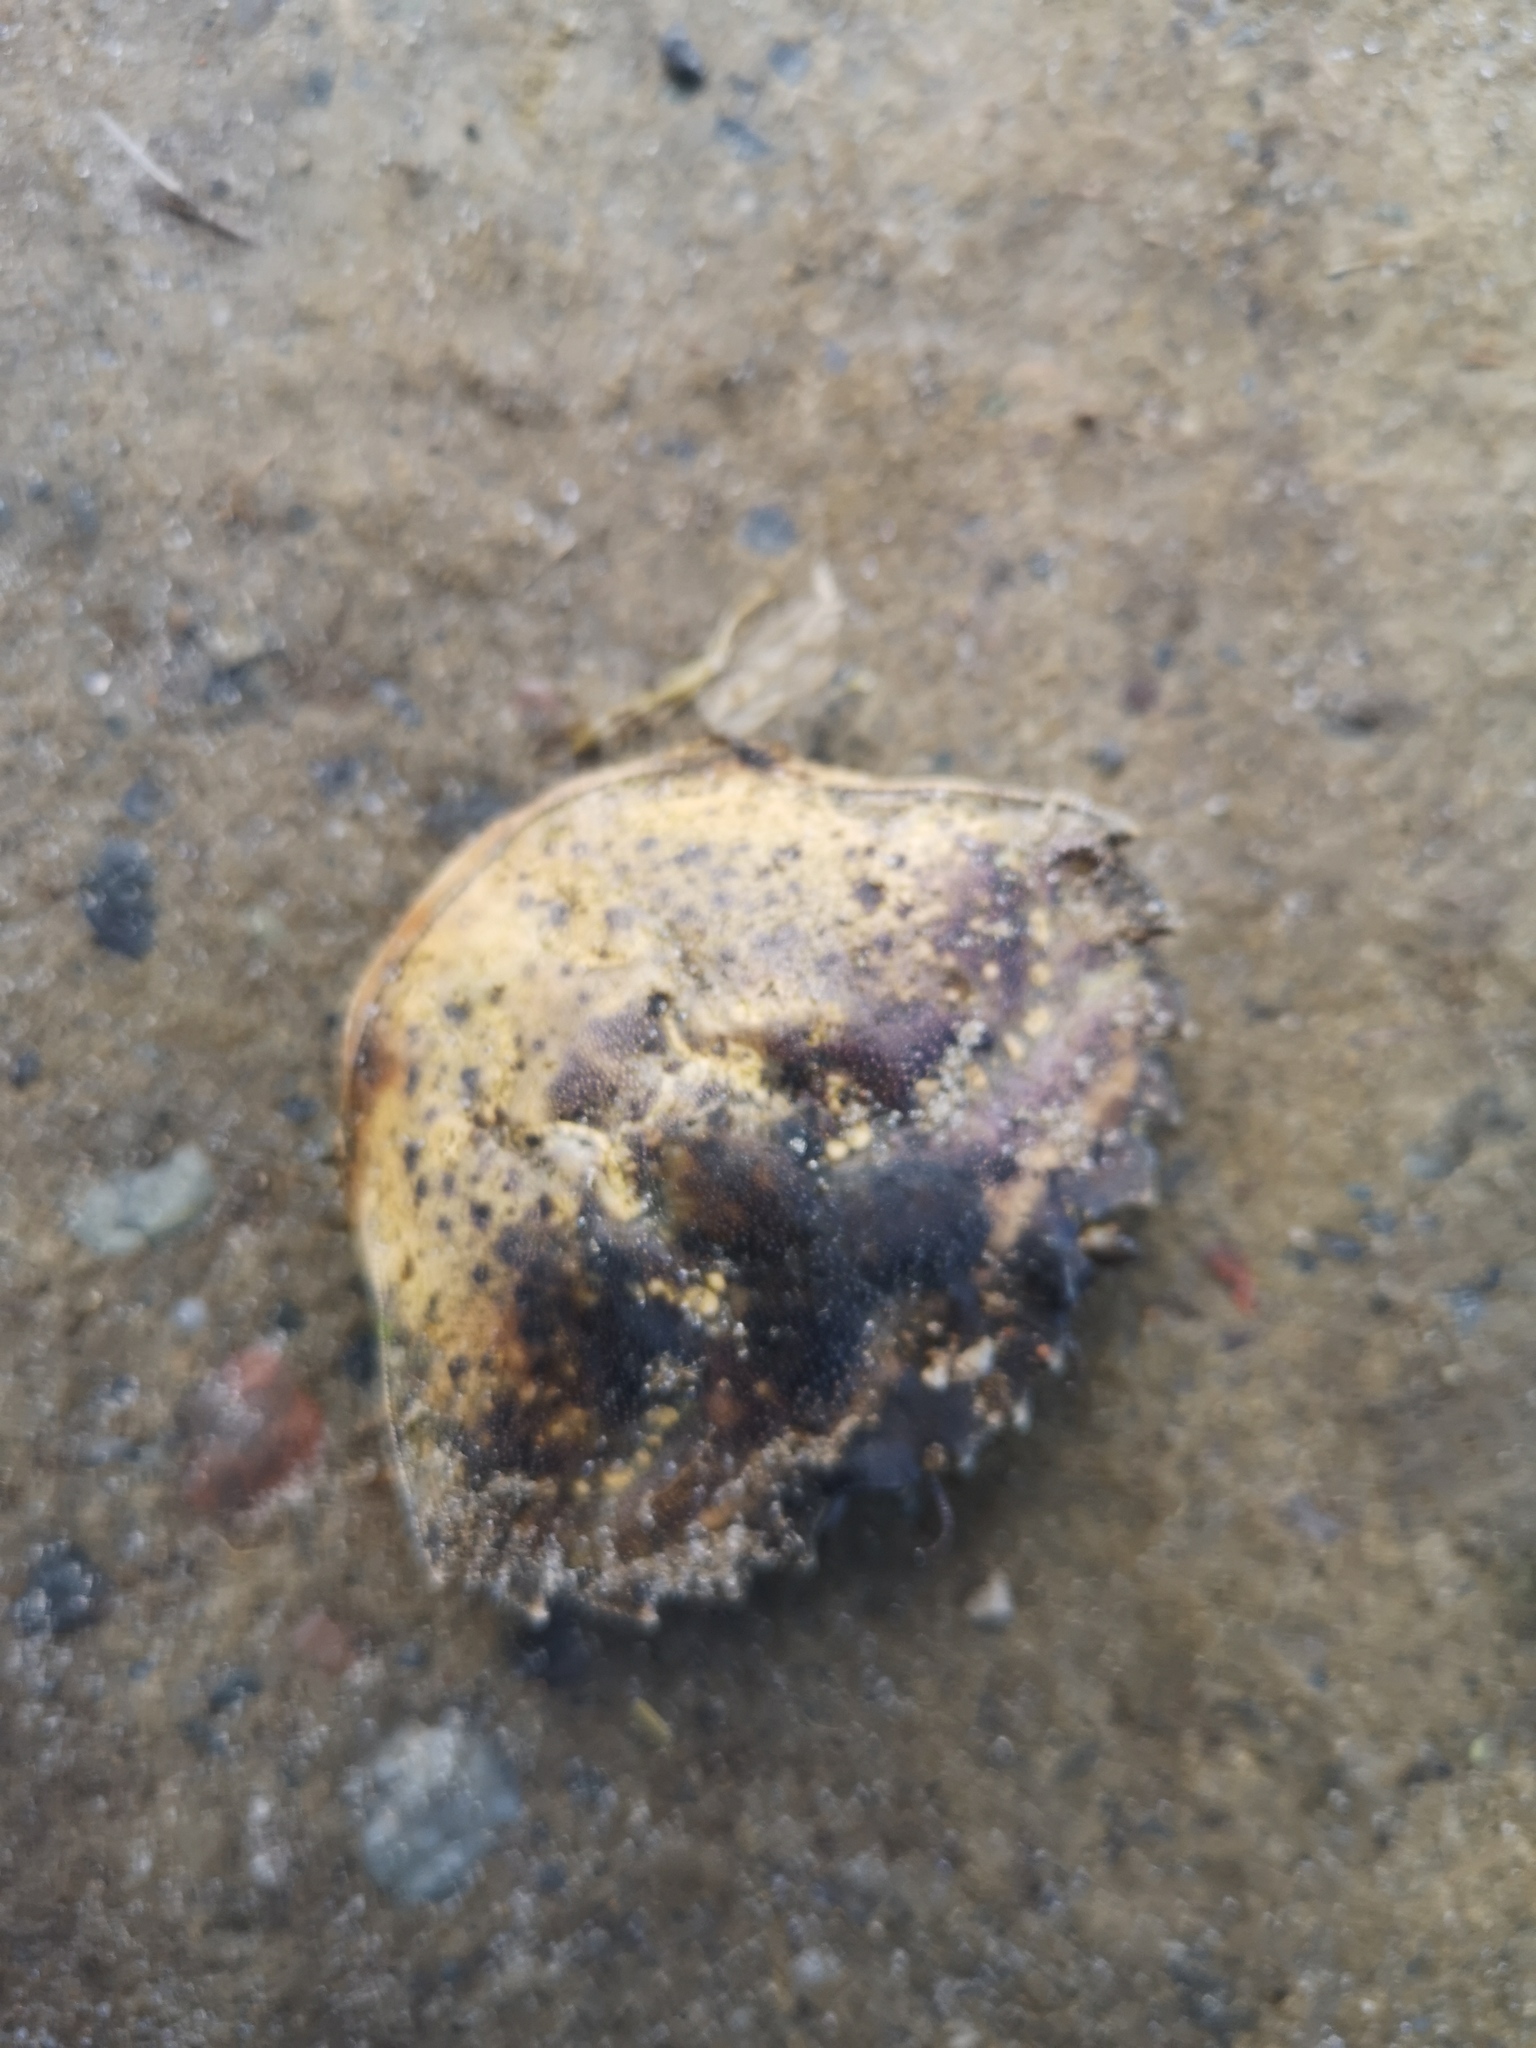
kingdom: Animalia
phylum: Arthropoda
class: Malacostraca
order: Decapoda
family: Carcinidae
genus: Carcinus
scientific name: Carcinus maenas
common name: European green crab
